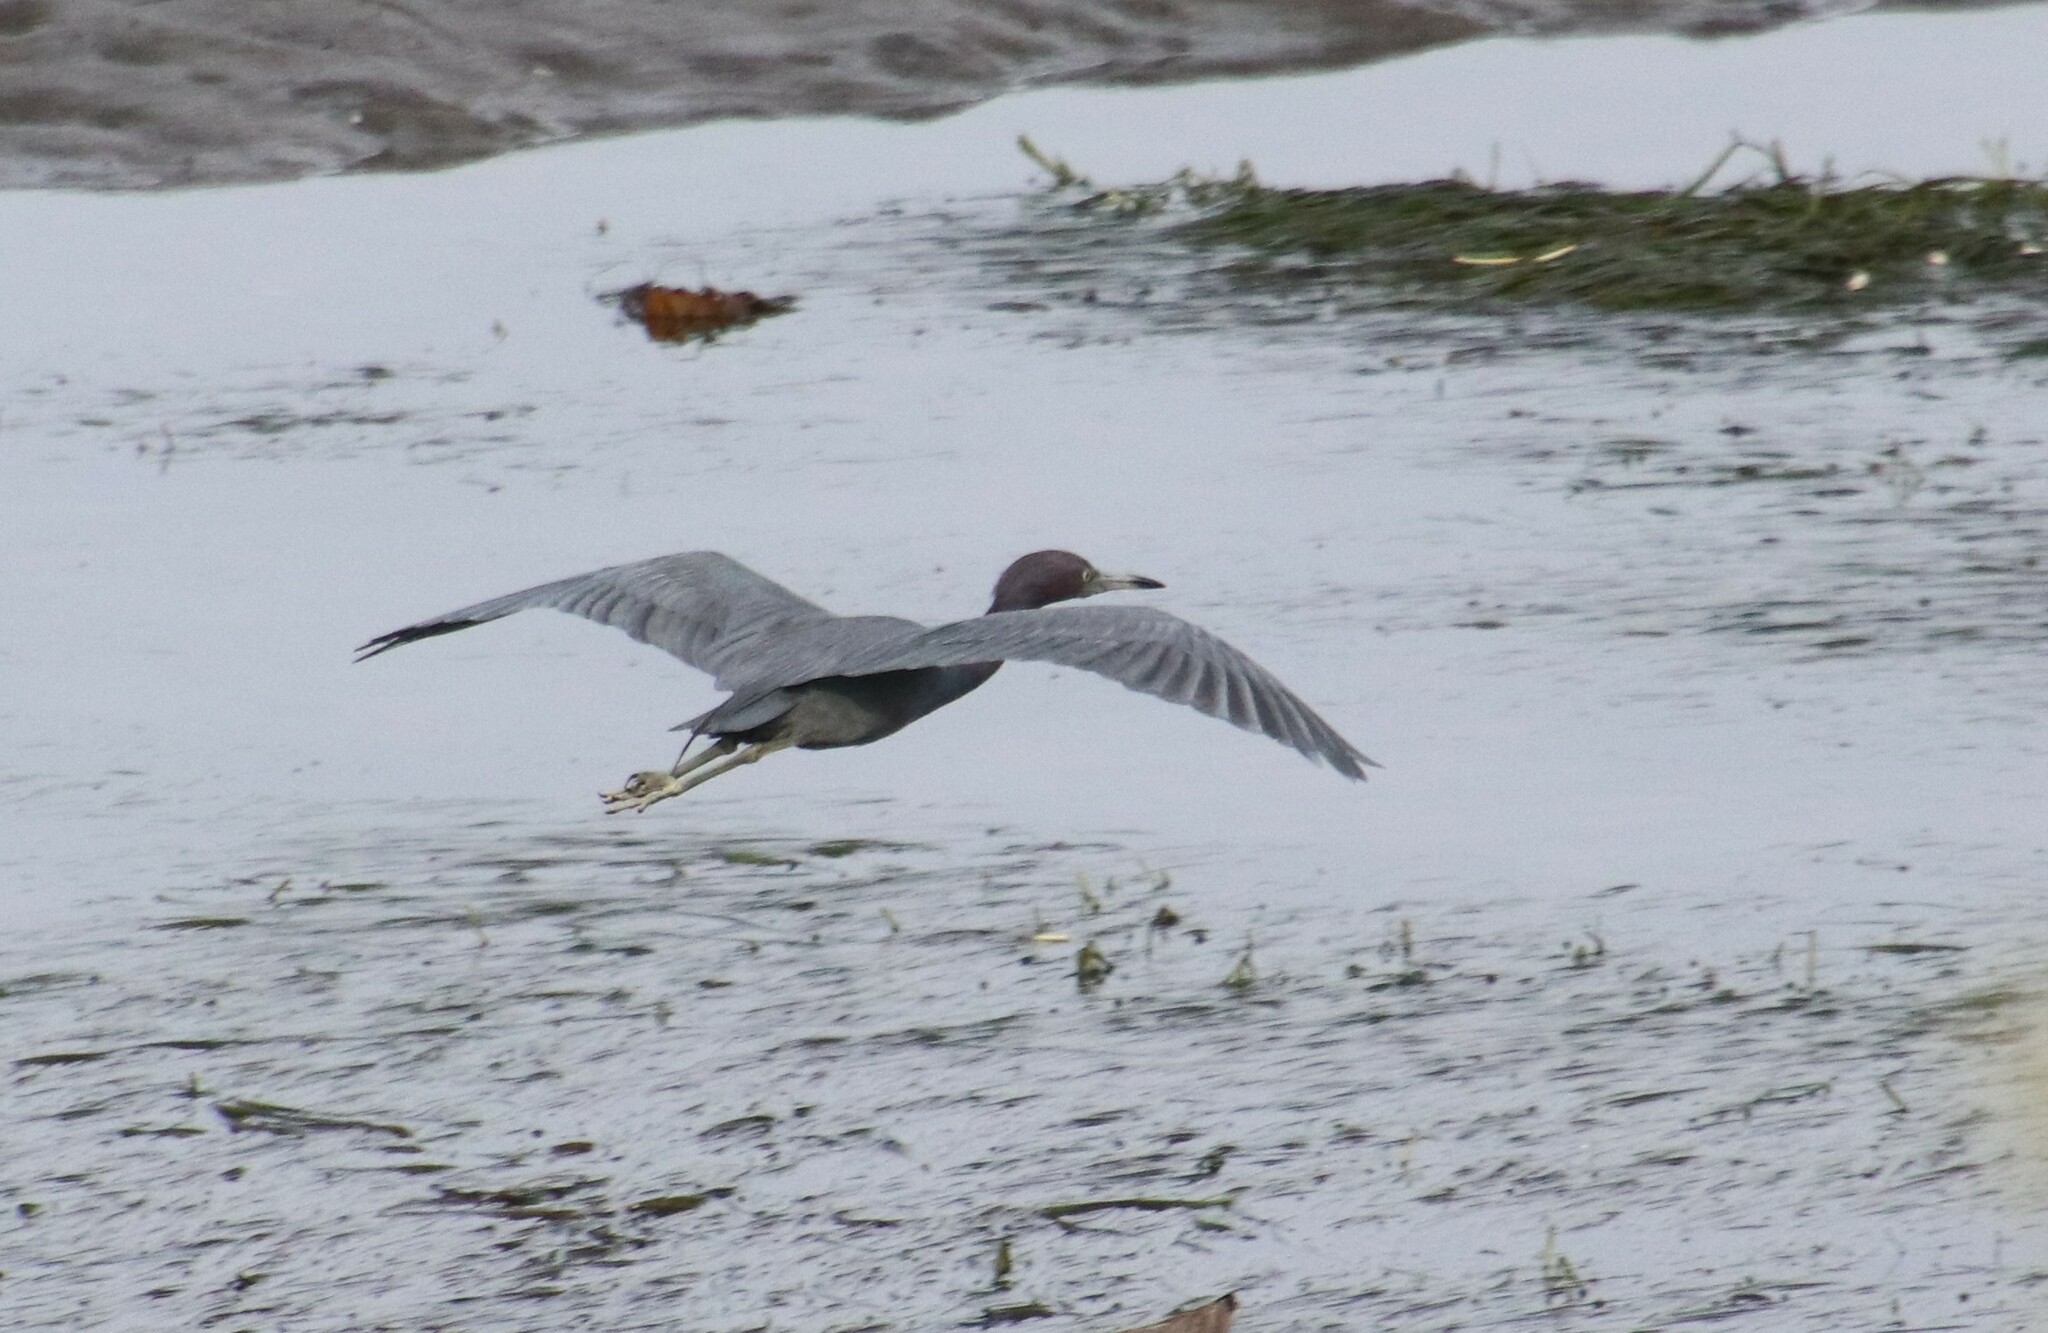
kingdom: Animalia
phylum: Chordata
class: Aves
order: Pelecaniformes
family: Ardeidae
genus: Egretta
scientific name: Egretta caerulea
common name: Little blue heron
